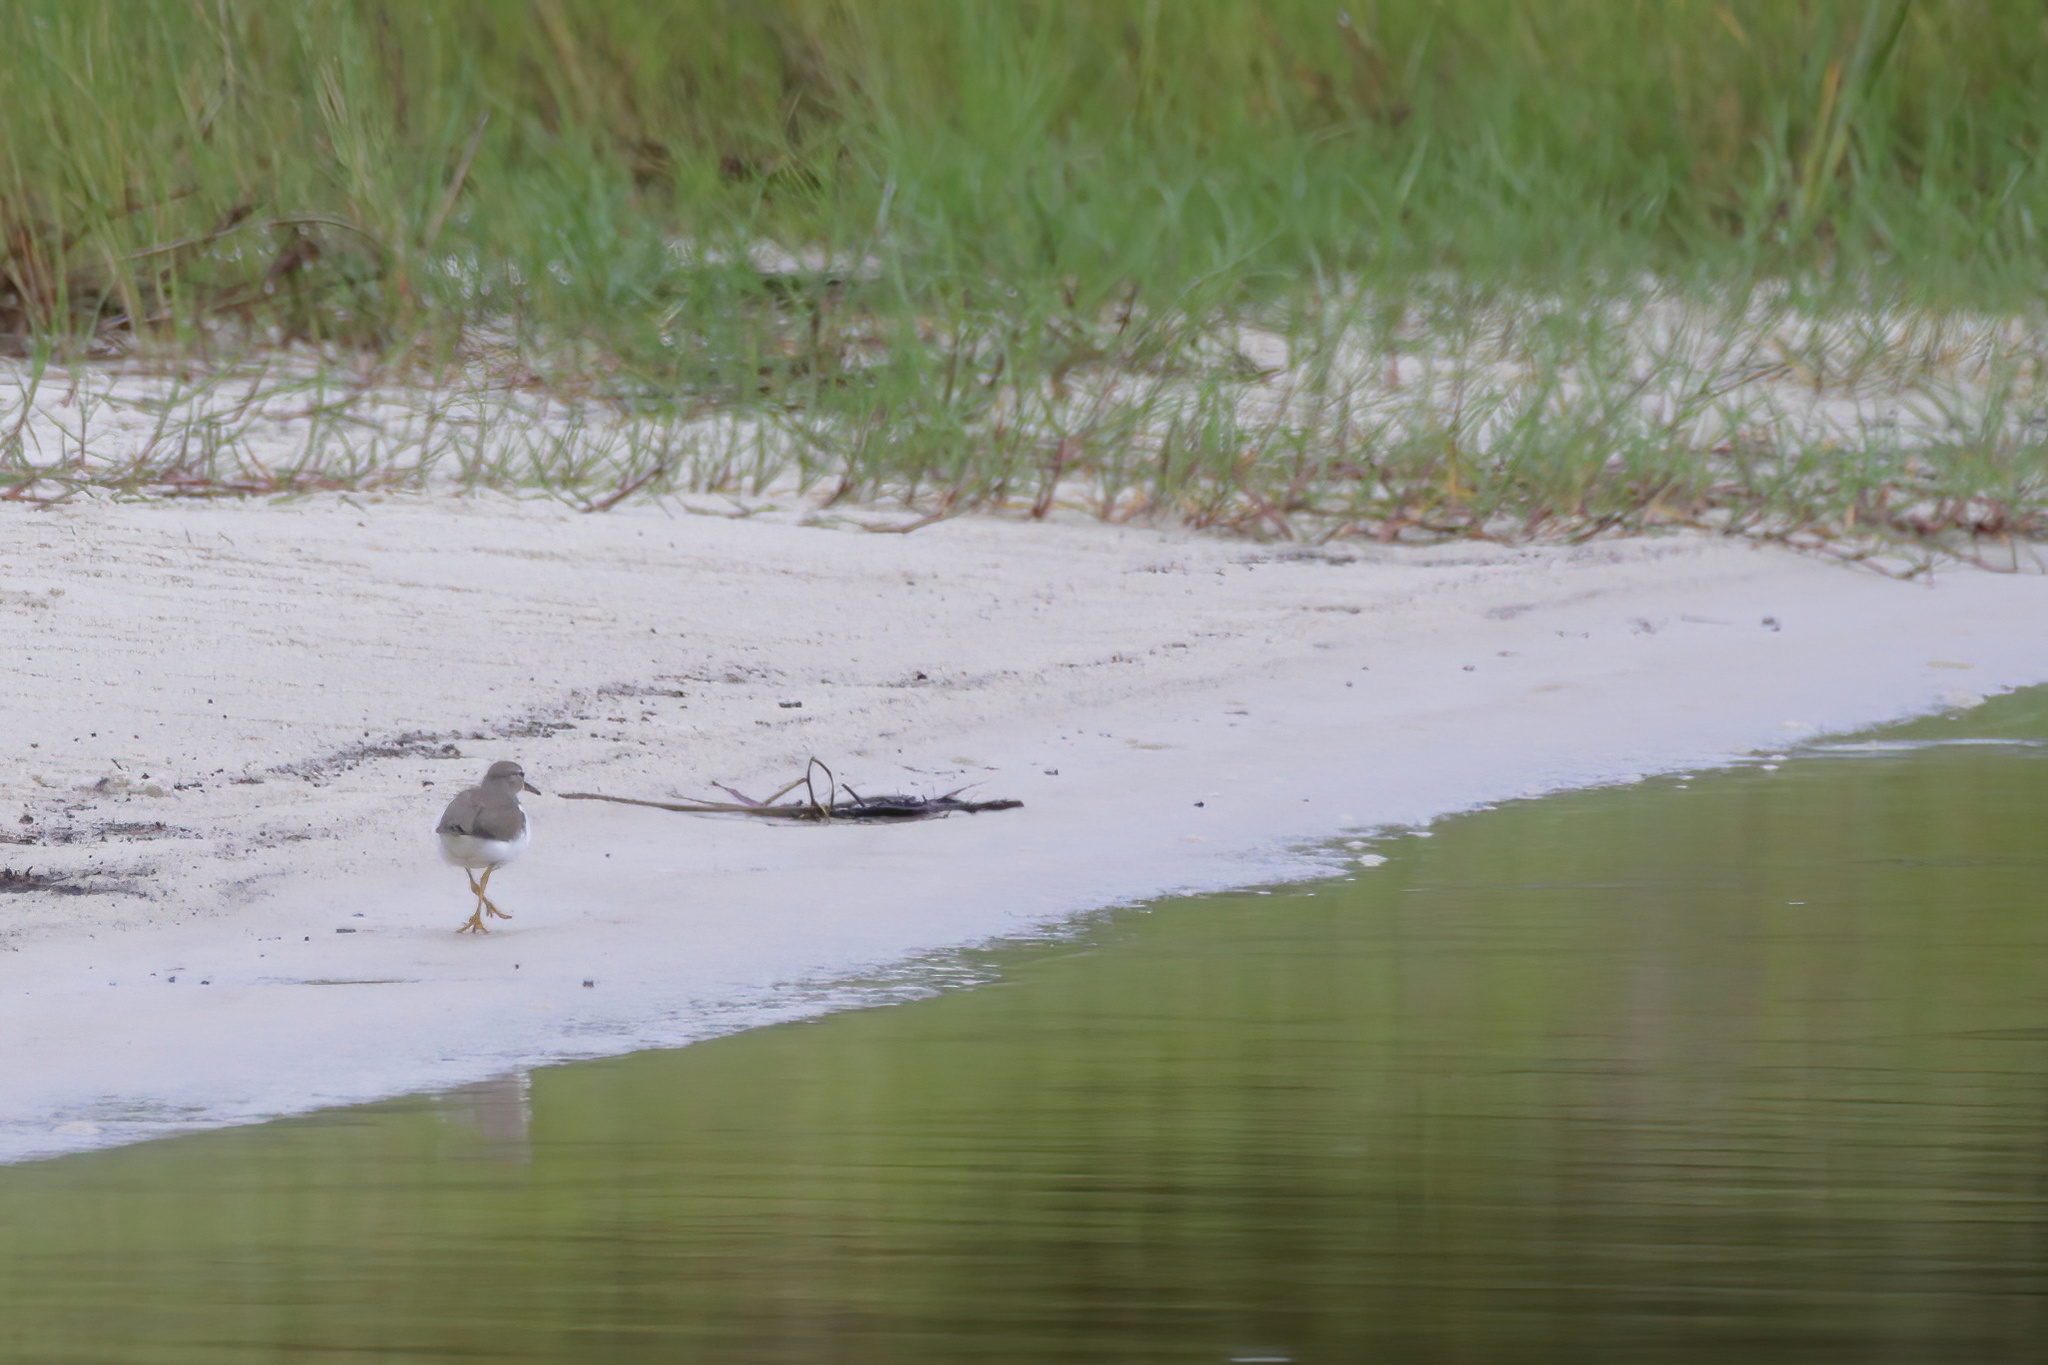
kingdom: Animalia
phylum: Chordata
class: Aves
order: Charadriiformes
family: Scolopacidae
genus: Actitis
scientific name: Actitis macularius
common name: Spotted sandpiper
